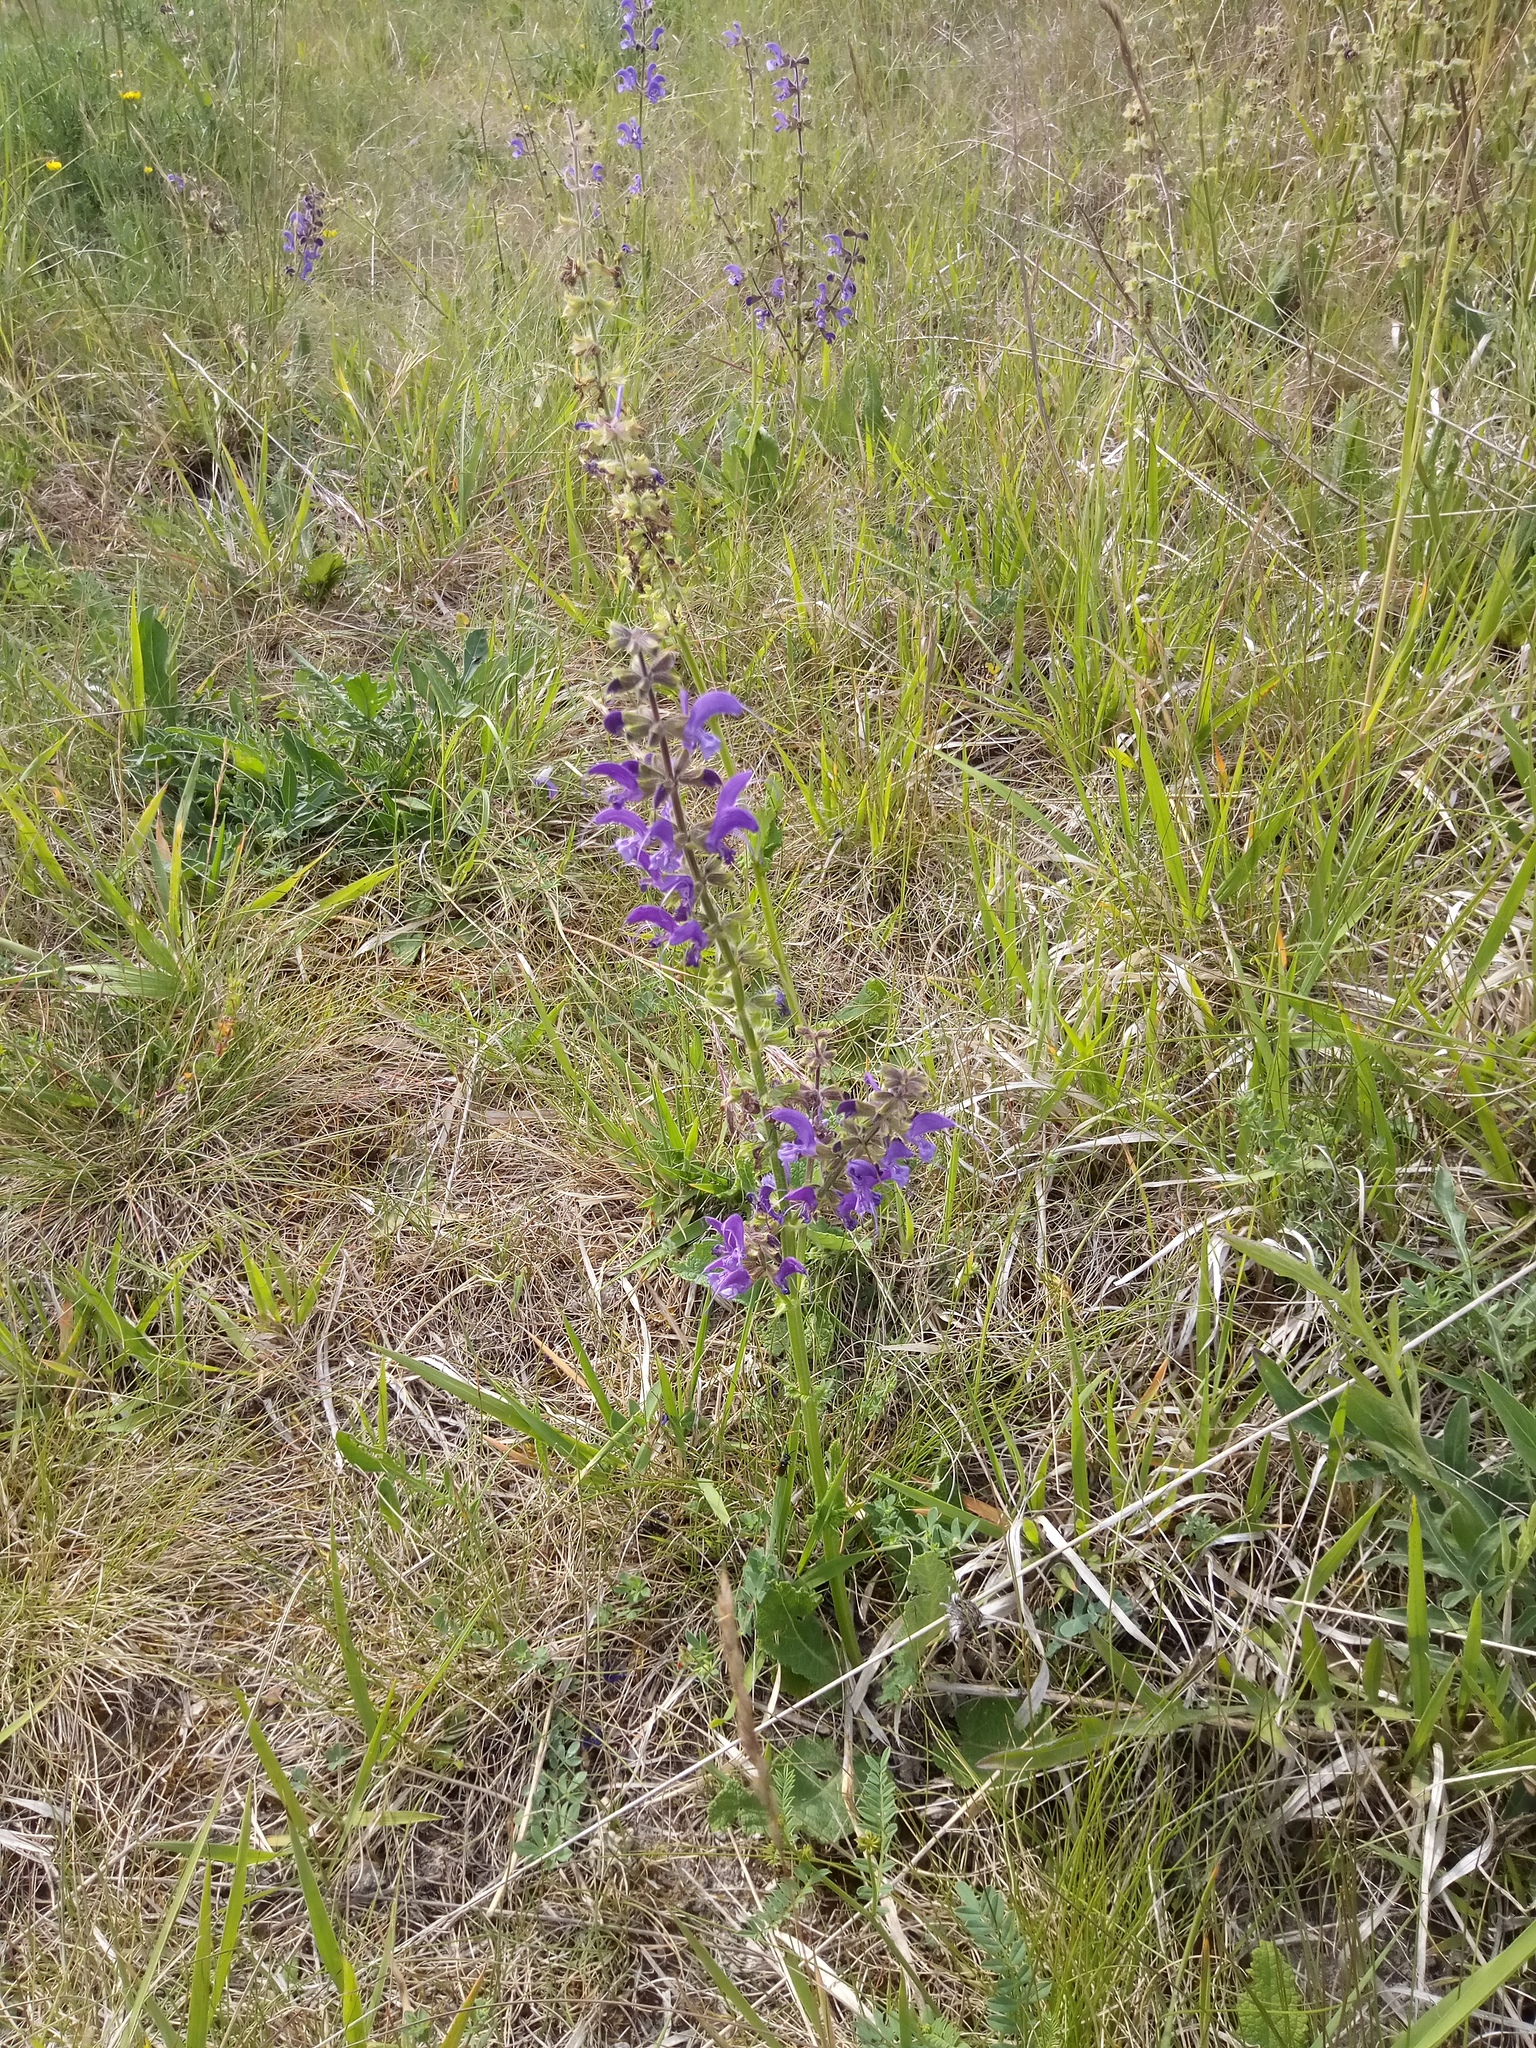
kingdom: Plantae
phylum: Tracheophyta
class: Magnoliopsida
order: Lamiales
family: Lamiaceae
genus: Salvia
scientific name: Salvia pratensis
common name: Meadow sage
